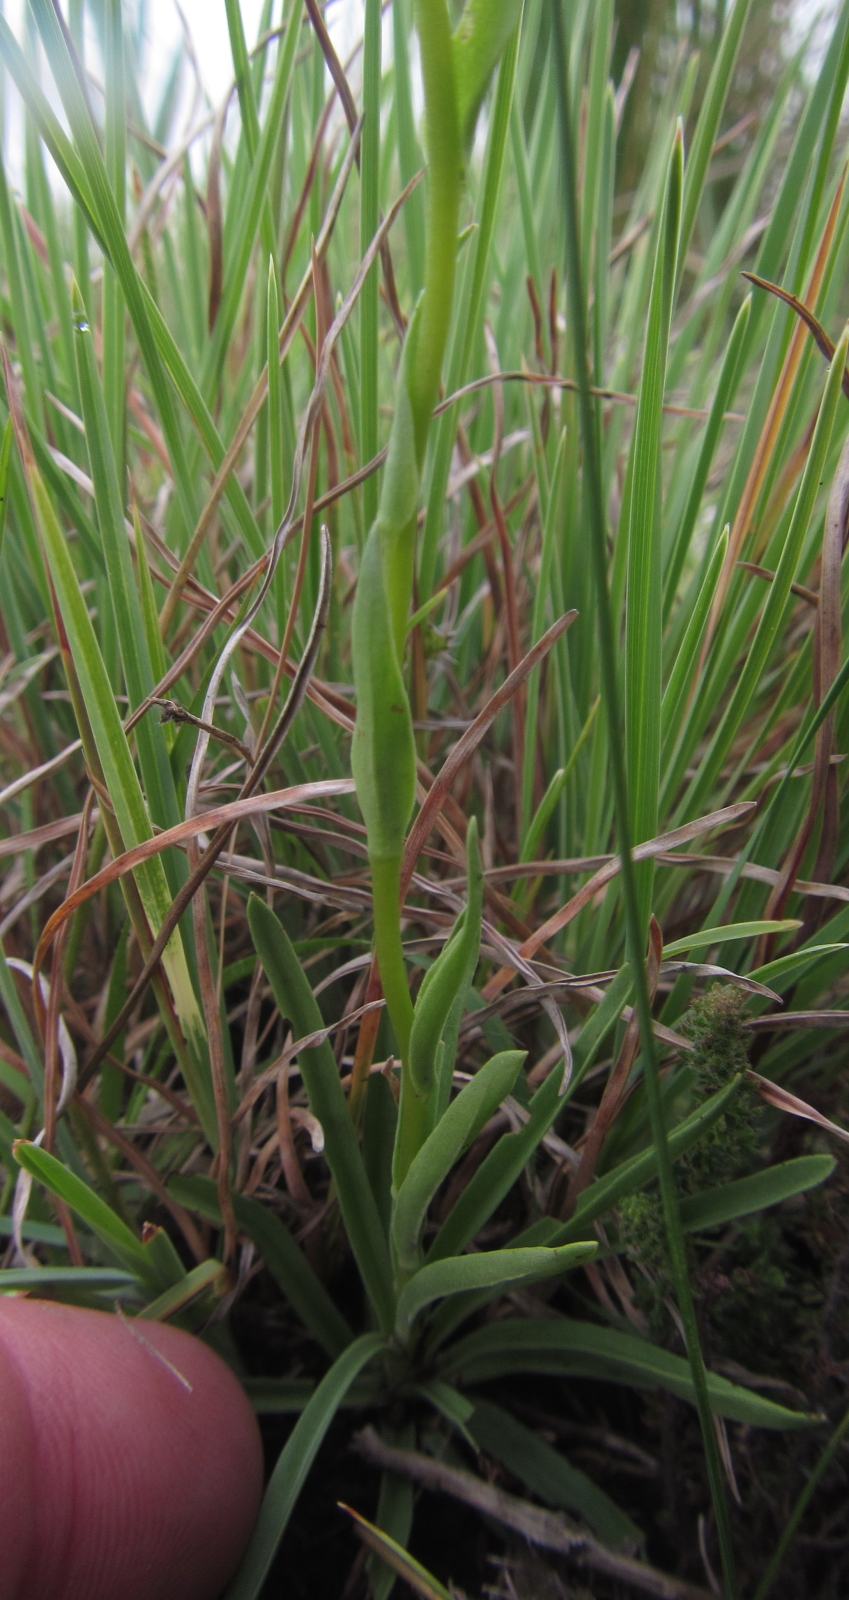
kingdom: Plantae
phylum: Tracheophyta
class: Liliopsida
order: Asparagales
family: Orchidaceae
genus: Schizochilus
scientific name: Schizochilus flexuosus
